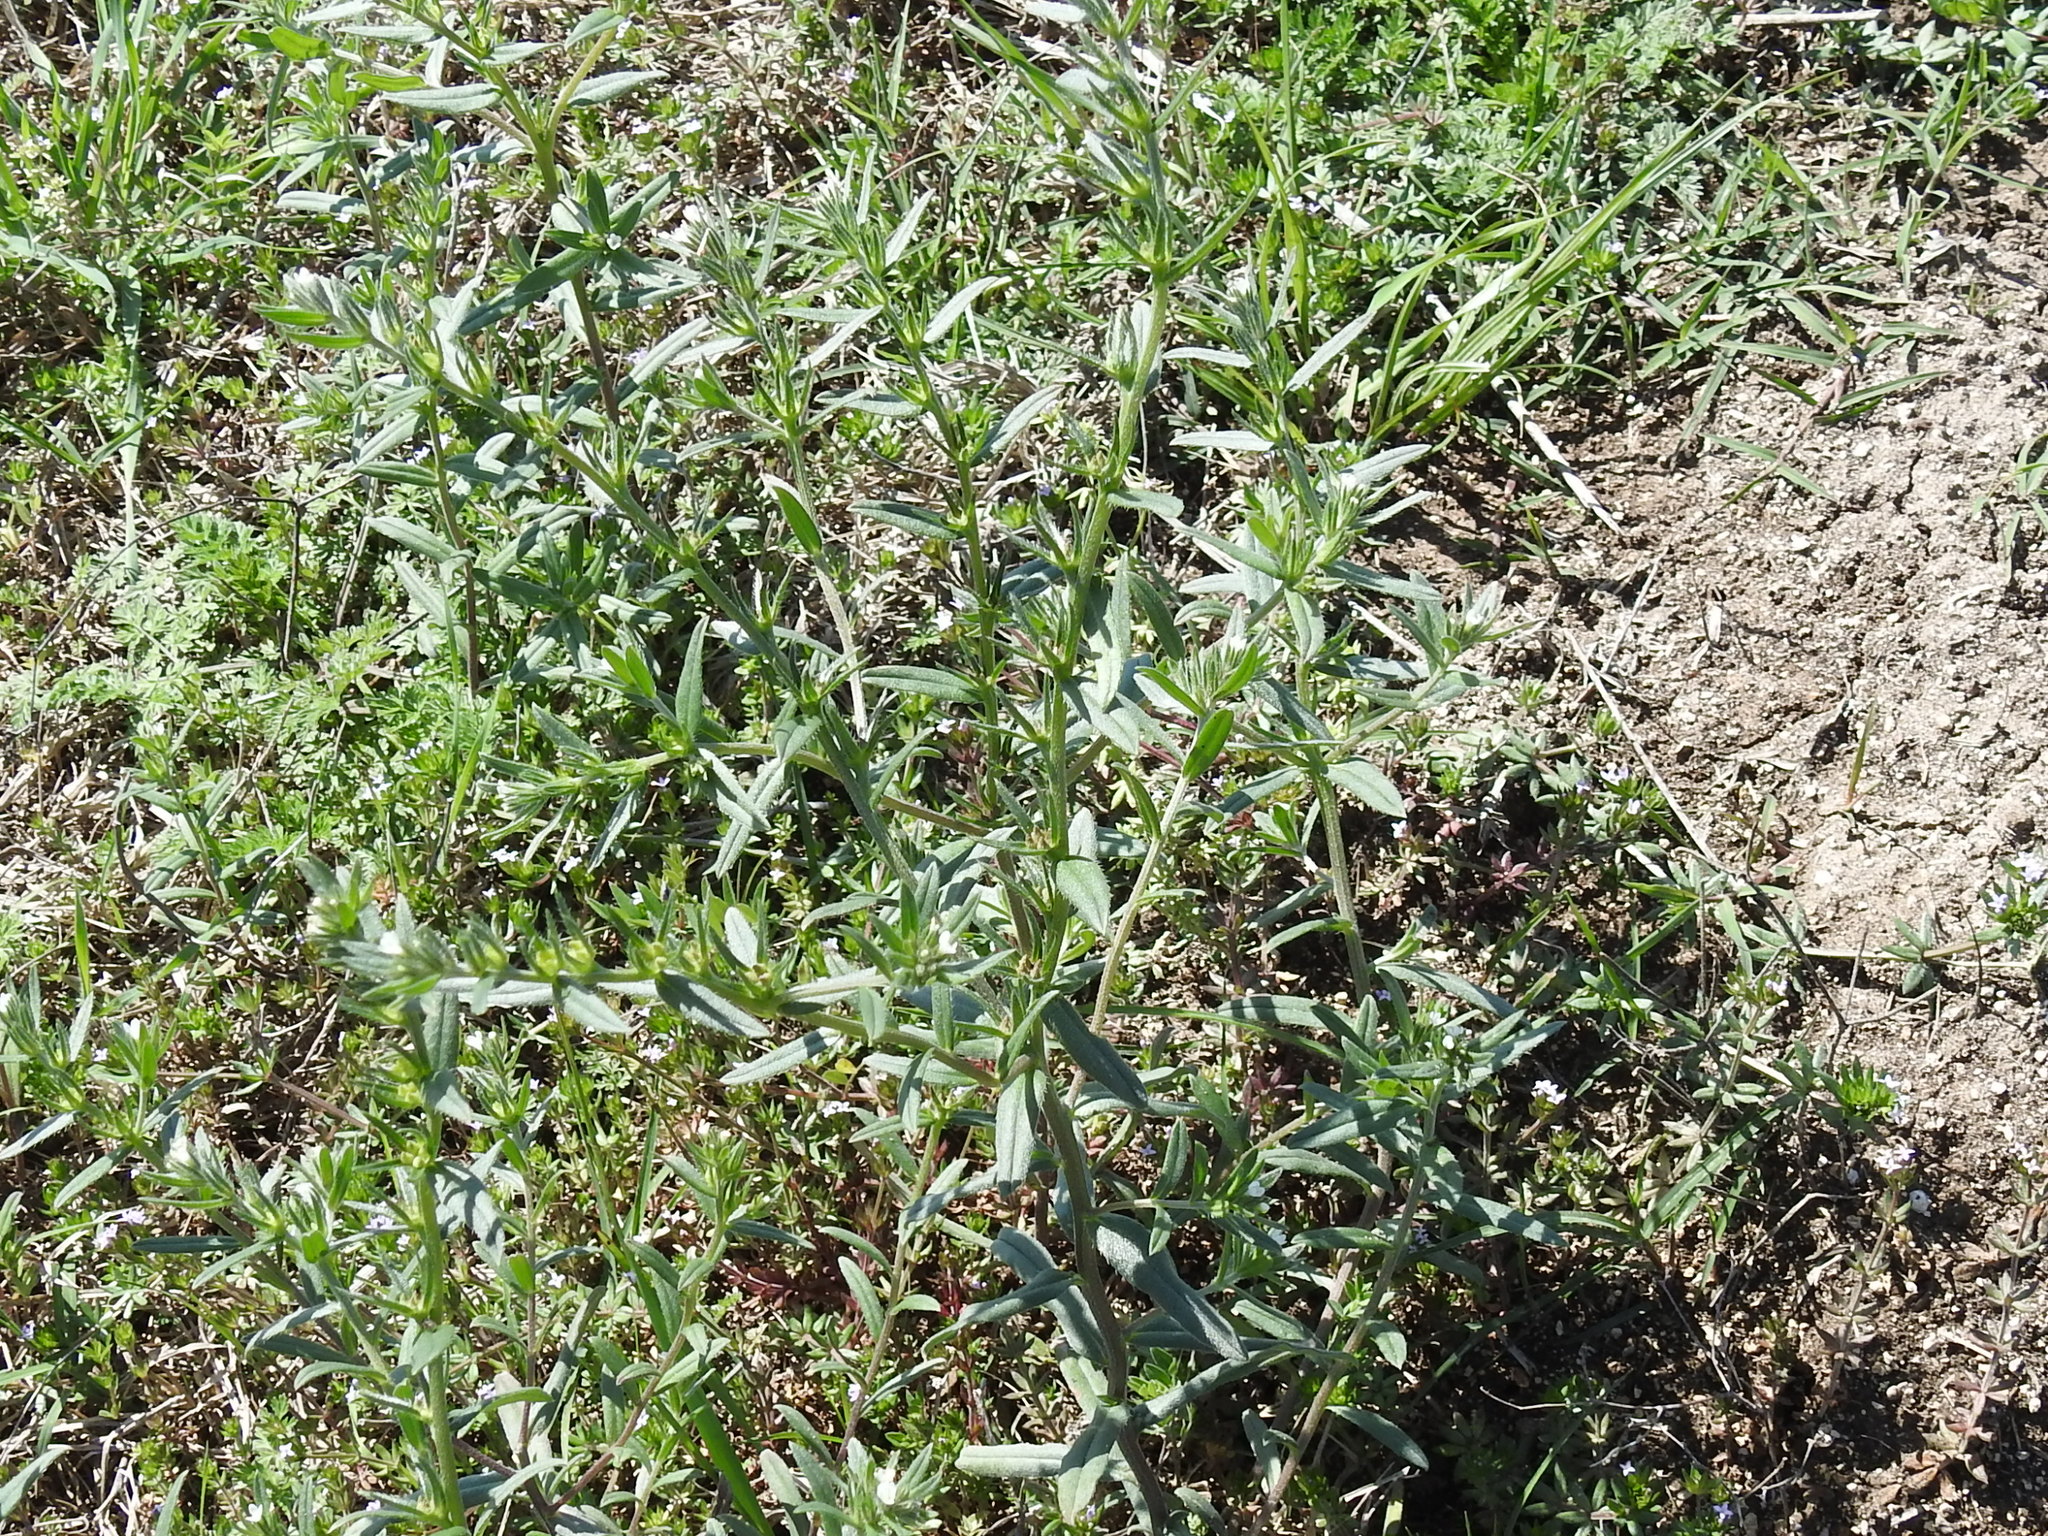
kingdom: Plantae
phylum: Tracheophyta
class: Magnoliopsida
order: Boraginales
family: Boraginaceae
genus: Buglossoides
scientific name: Buglossoides arvensis
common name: Corn gromwell
